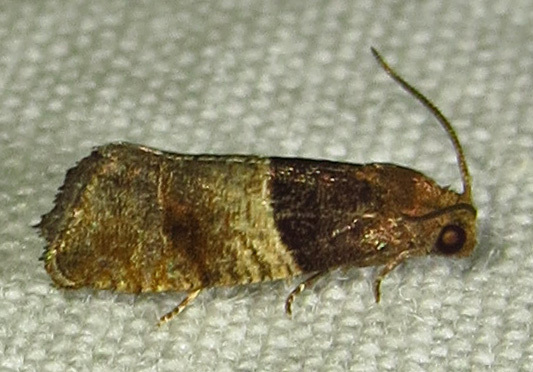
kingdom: Animalia
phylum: Arthropoda
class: Insecta
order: Lepidoptera
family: Tortricidae
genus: Larisa
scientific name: Larisa subsolana
